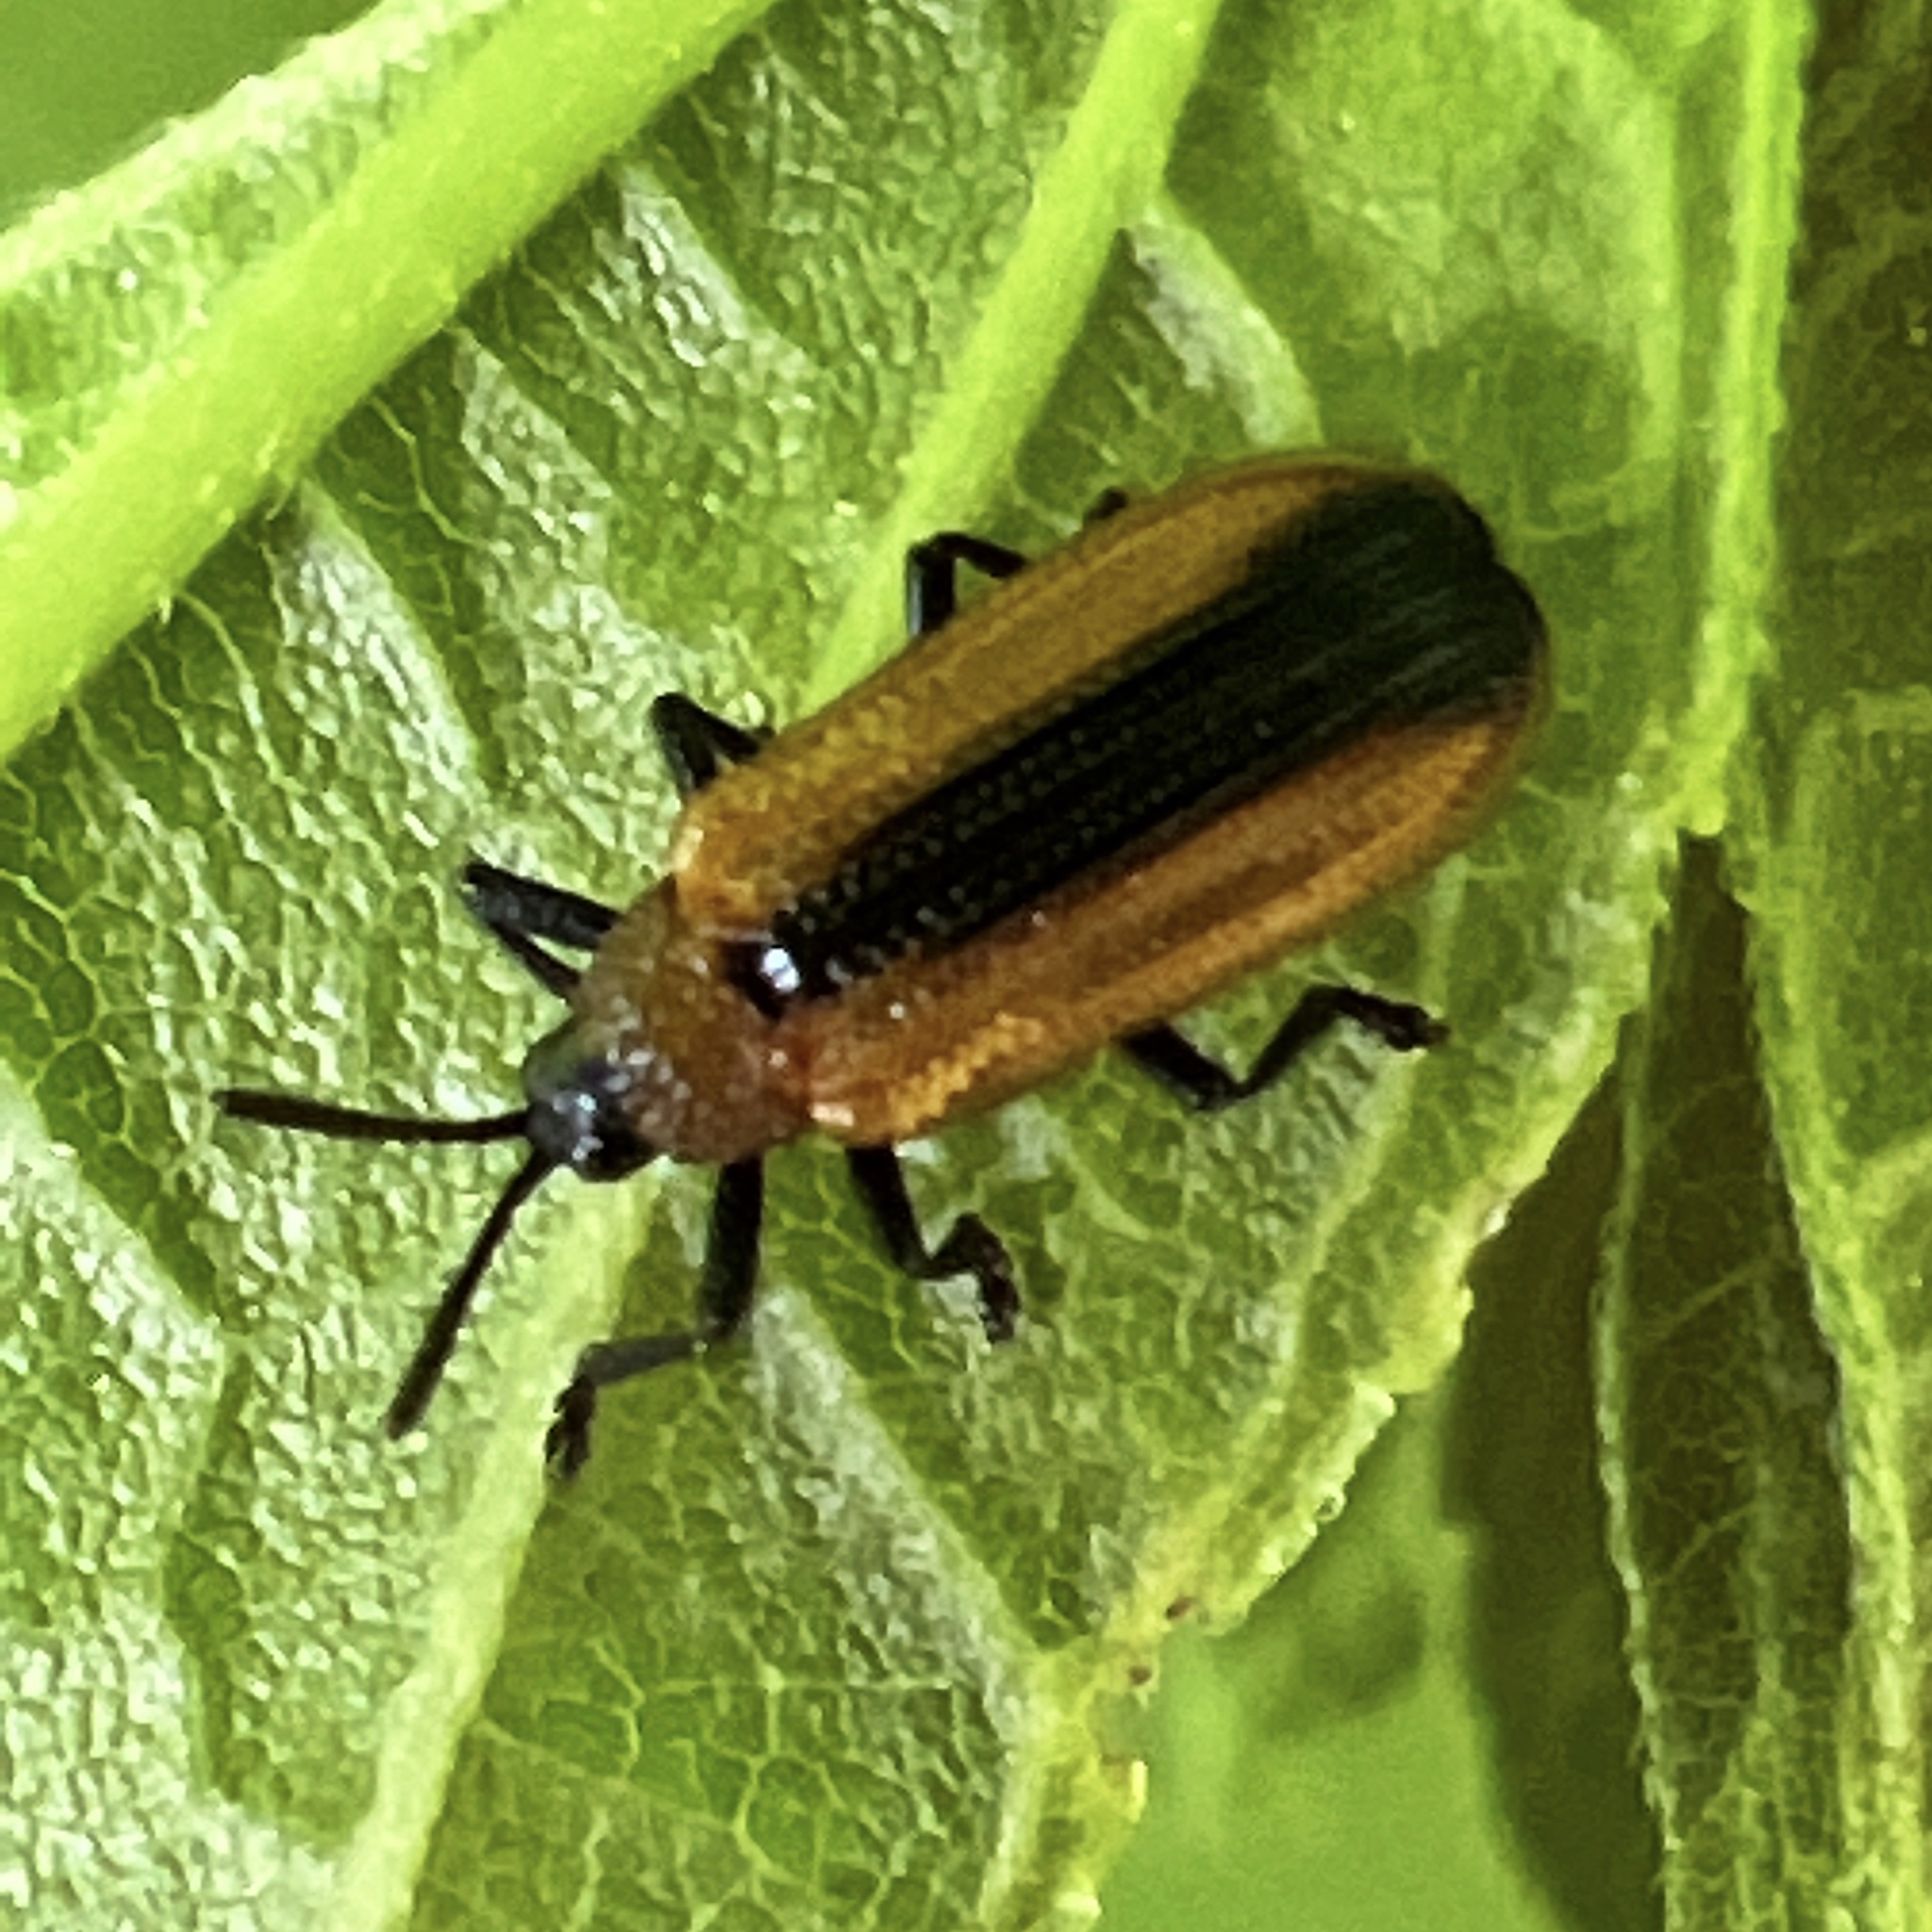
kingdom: Animalia
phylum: Arthropoda
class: Insecta
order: Coleoptera
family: Chrysomelidae
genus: Odontota
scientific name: Odontota dorsalis
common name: Locust leaf-miner beetle
